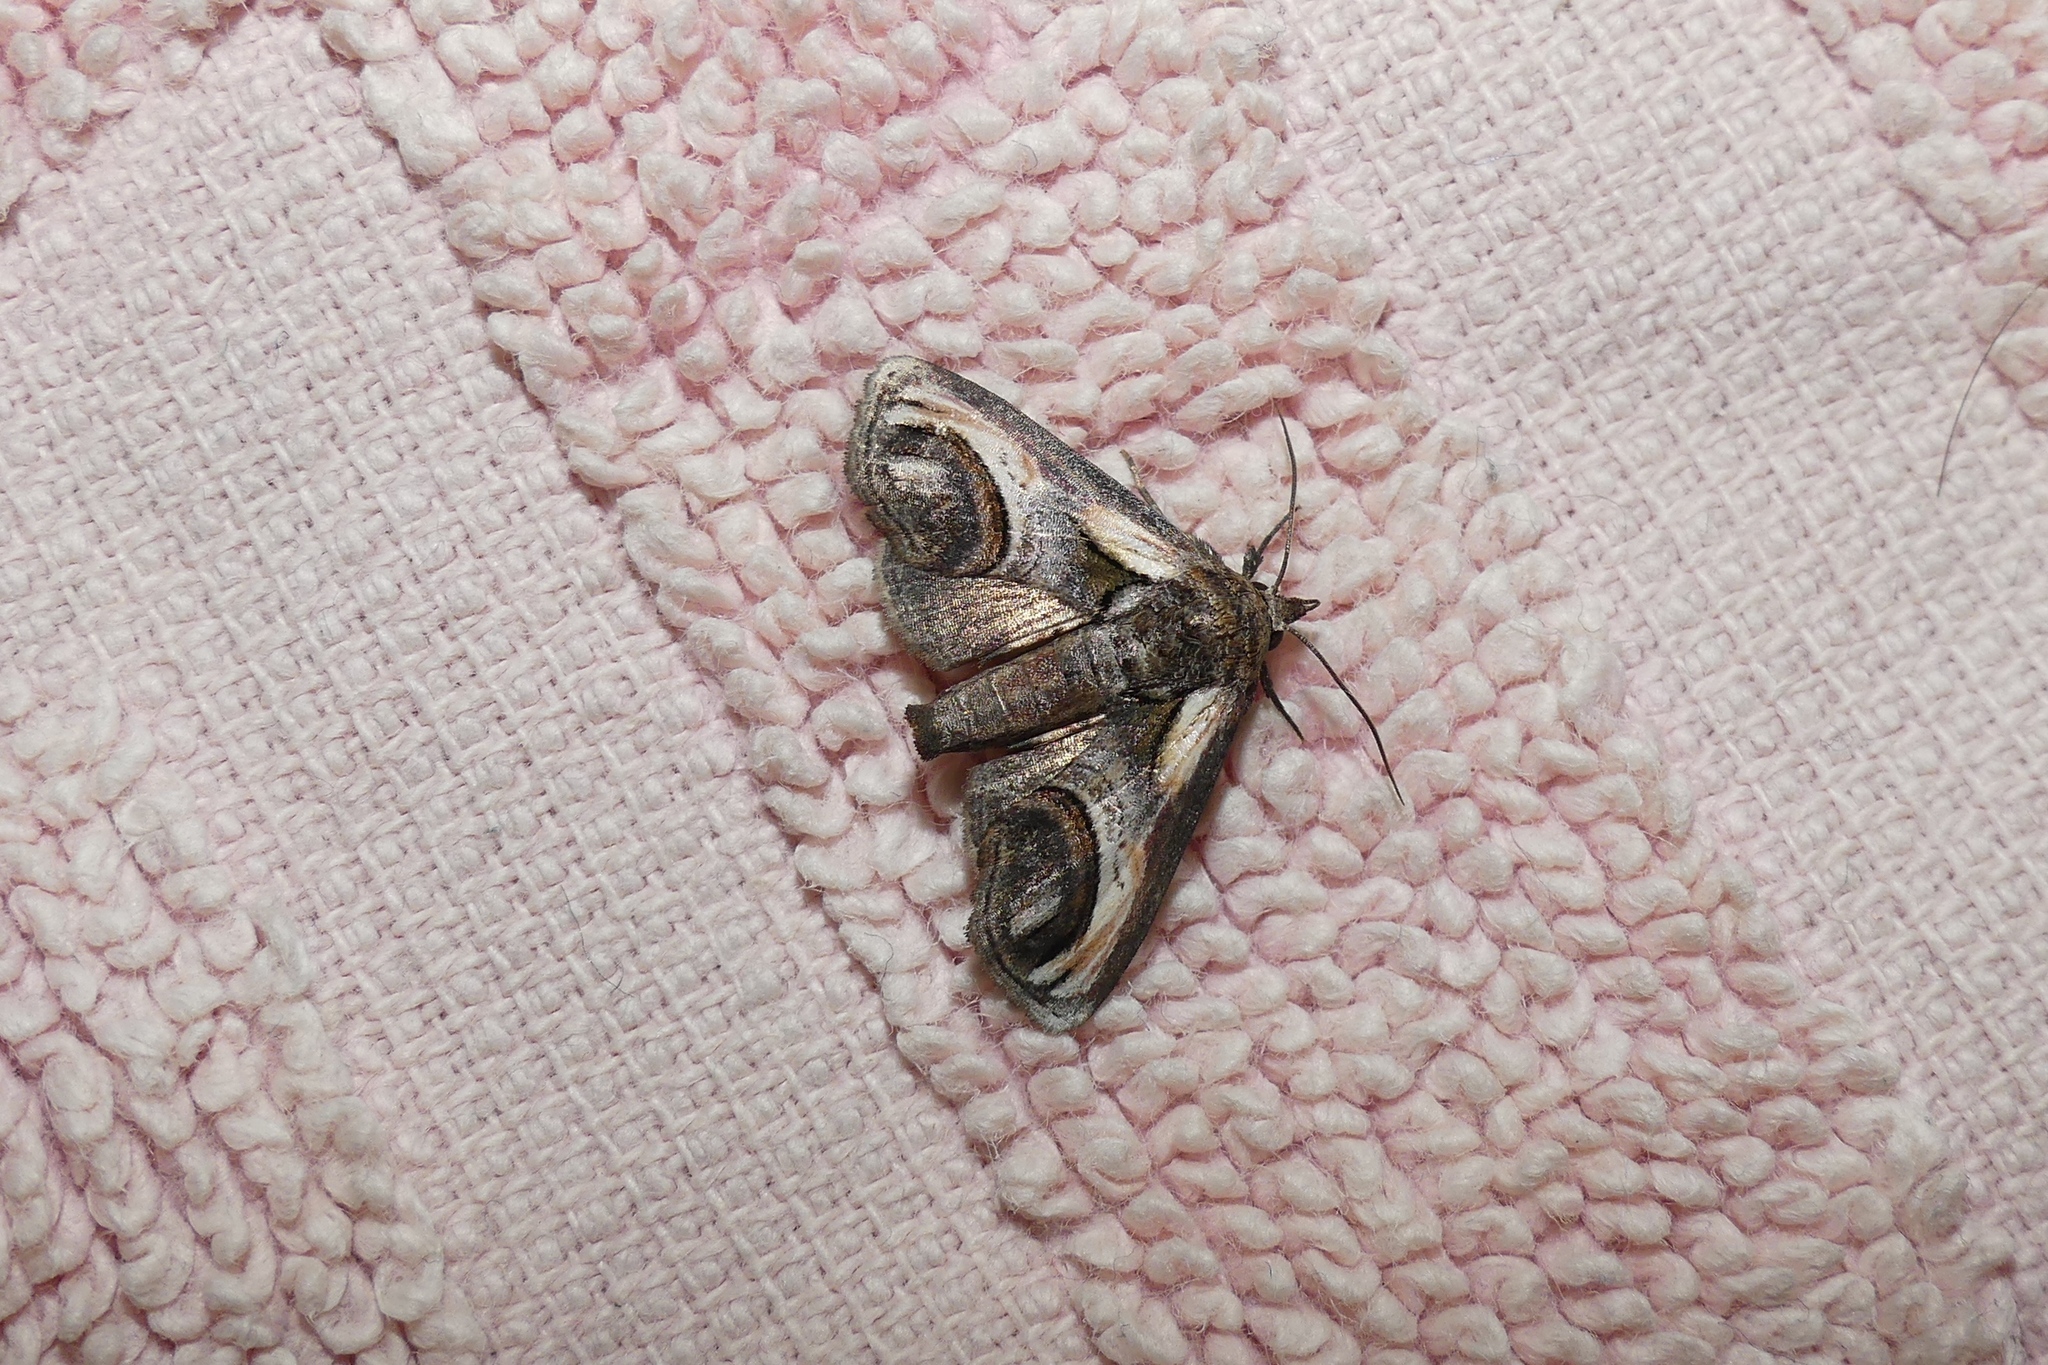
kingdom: Animalia
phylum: Arthropoda
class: Insecta
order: Lepidoptera
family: Euteliidae
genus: Paectes
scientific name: Paectes oculatrix
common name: Eyed paectes moth
